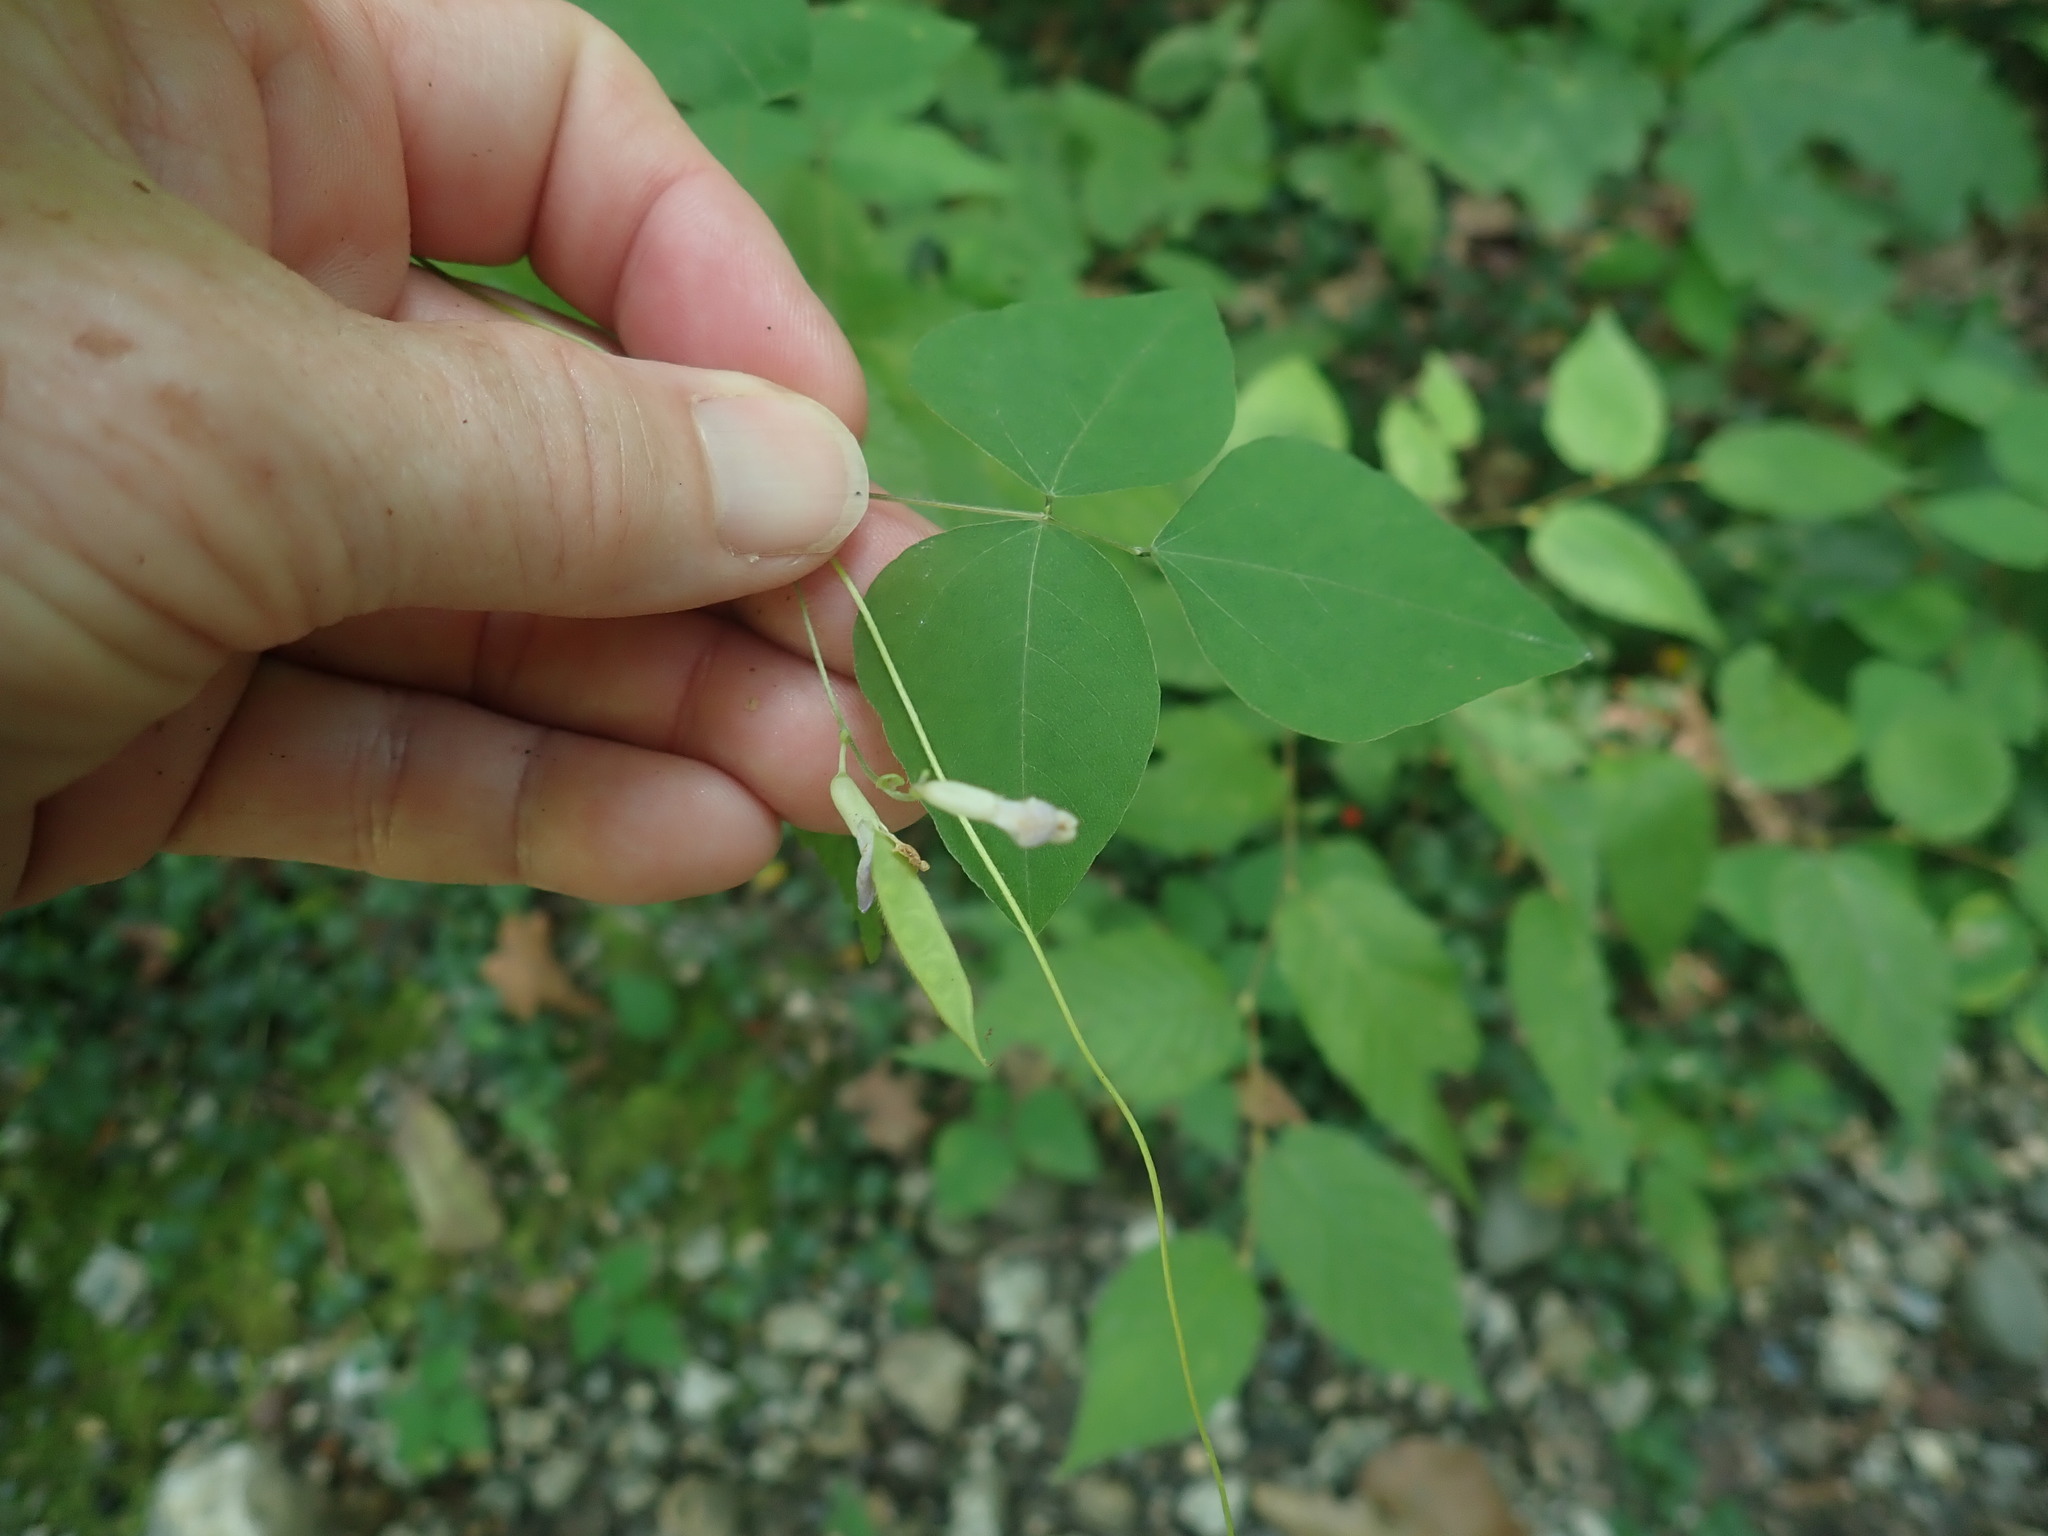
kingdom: Plantae
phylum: Tracheophyta
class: Magnoliopsida
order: Fabales
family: Fabaceae
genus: Amphicarpaea
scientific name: Amphicarpaea bracteata
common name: American hog peanut
